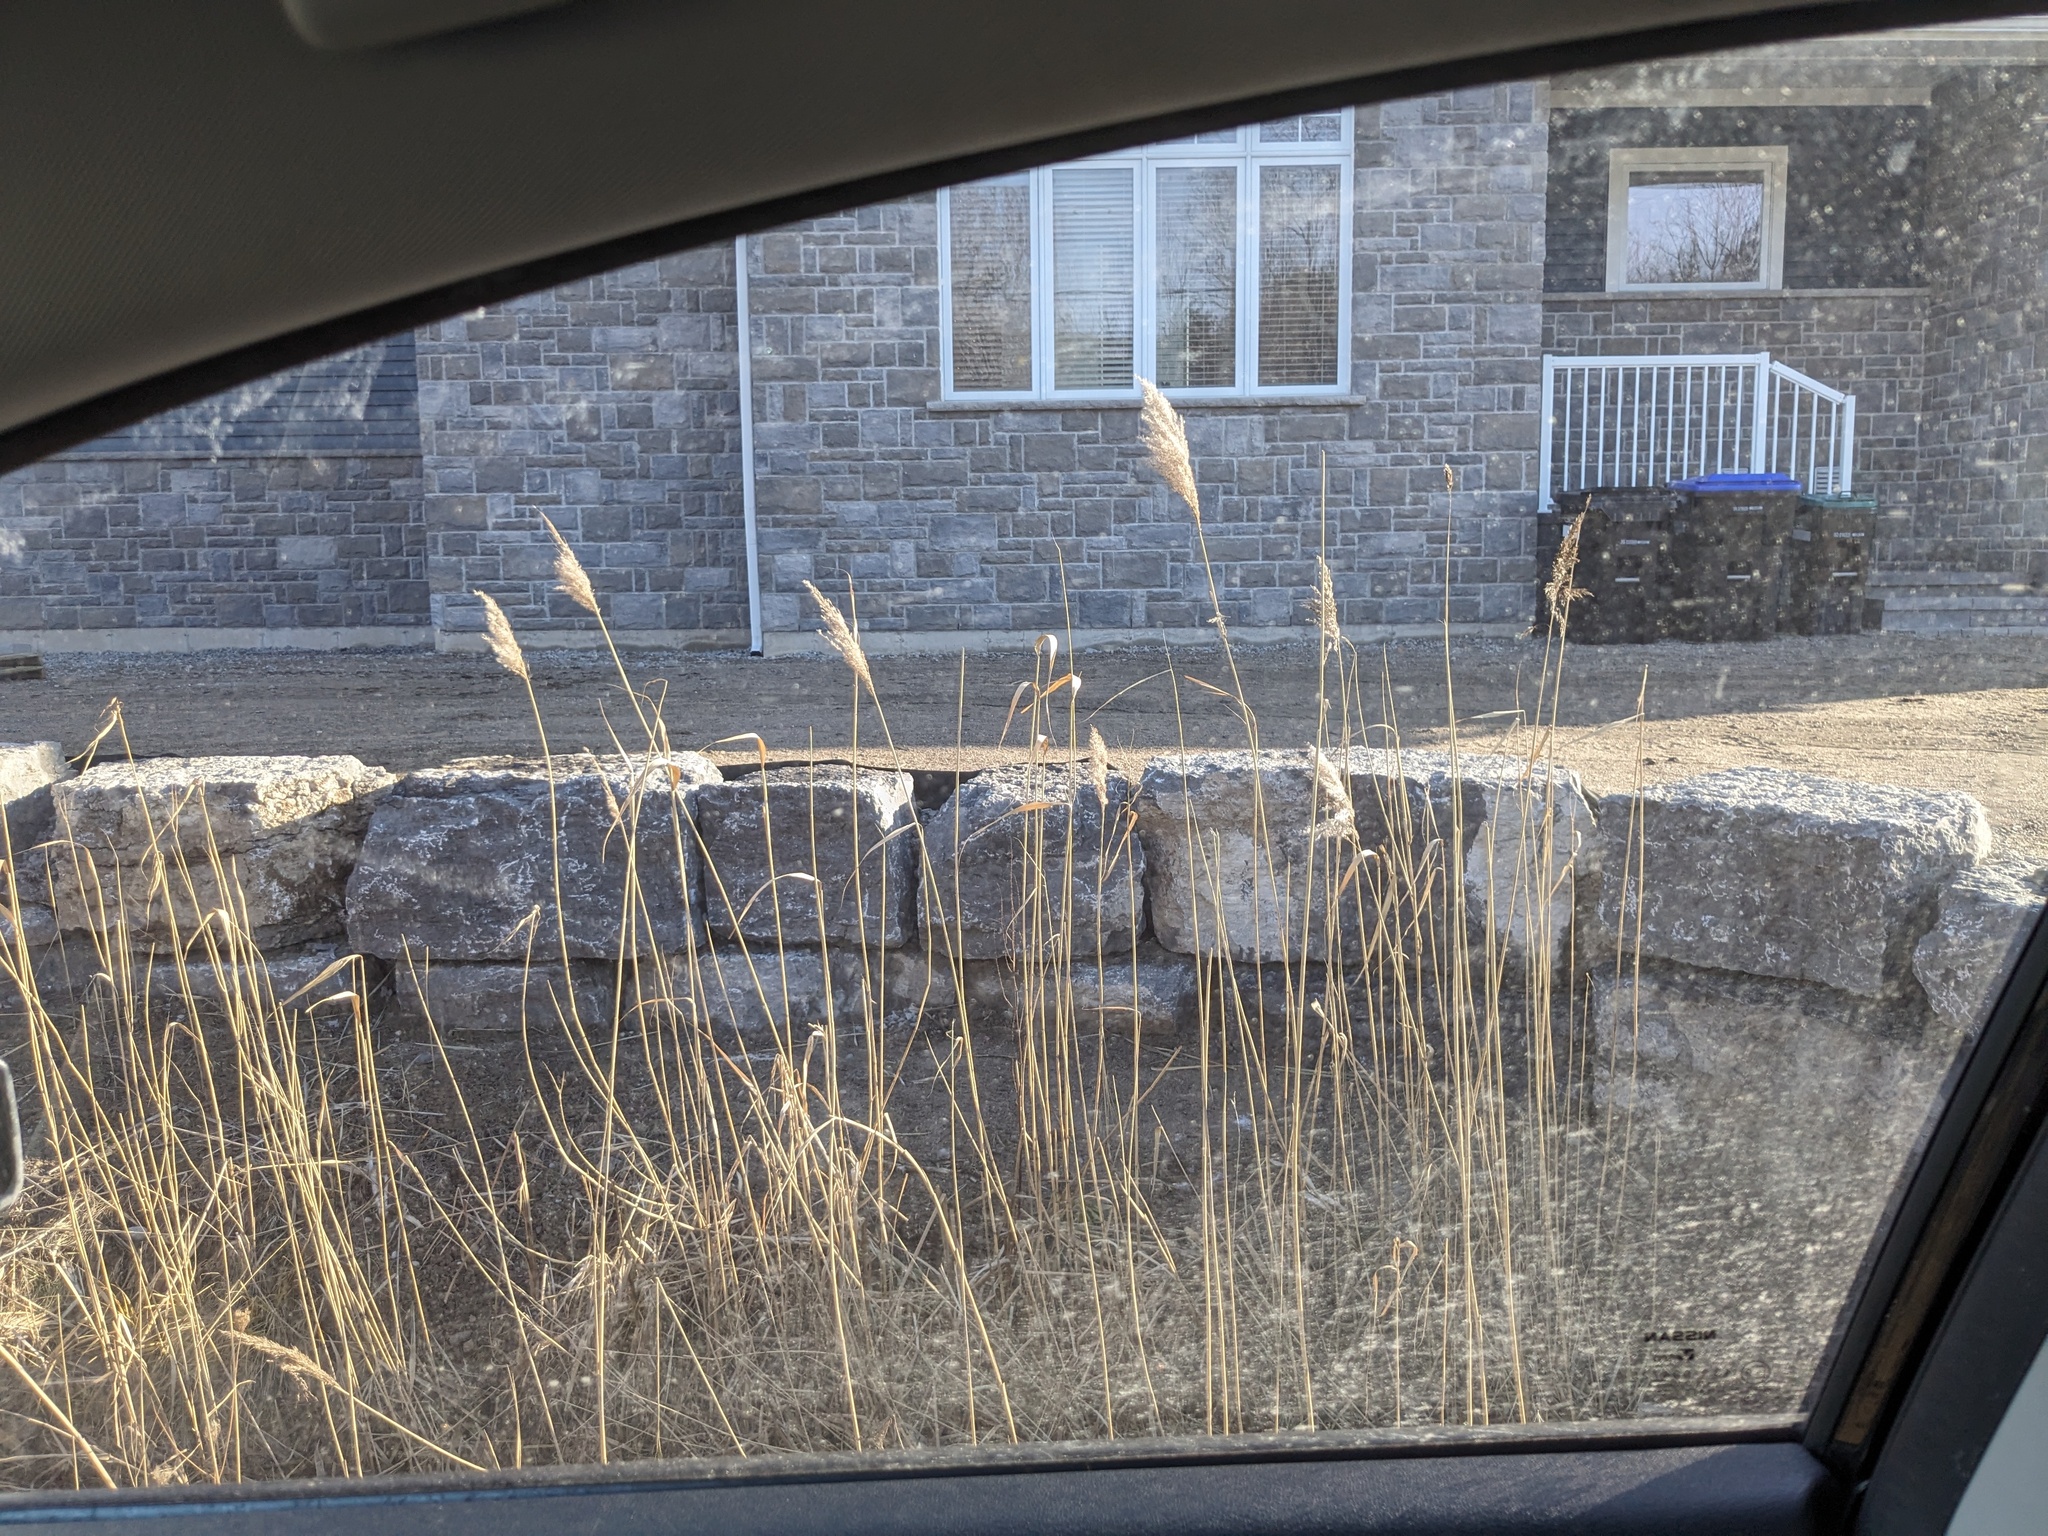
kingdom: Plantae
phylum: Tracheophyta
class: Liliopsida
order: Poales
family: Poaceae
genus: Phragmites
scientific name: Phragmites australis
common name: Common reed
